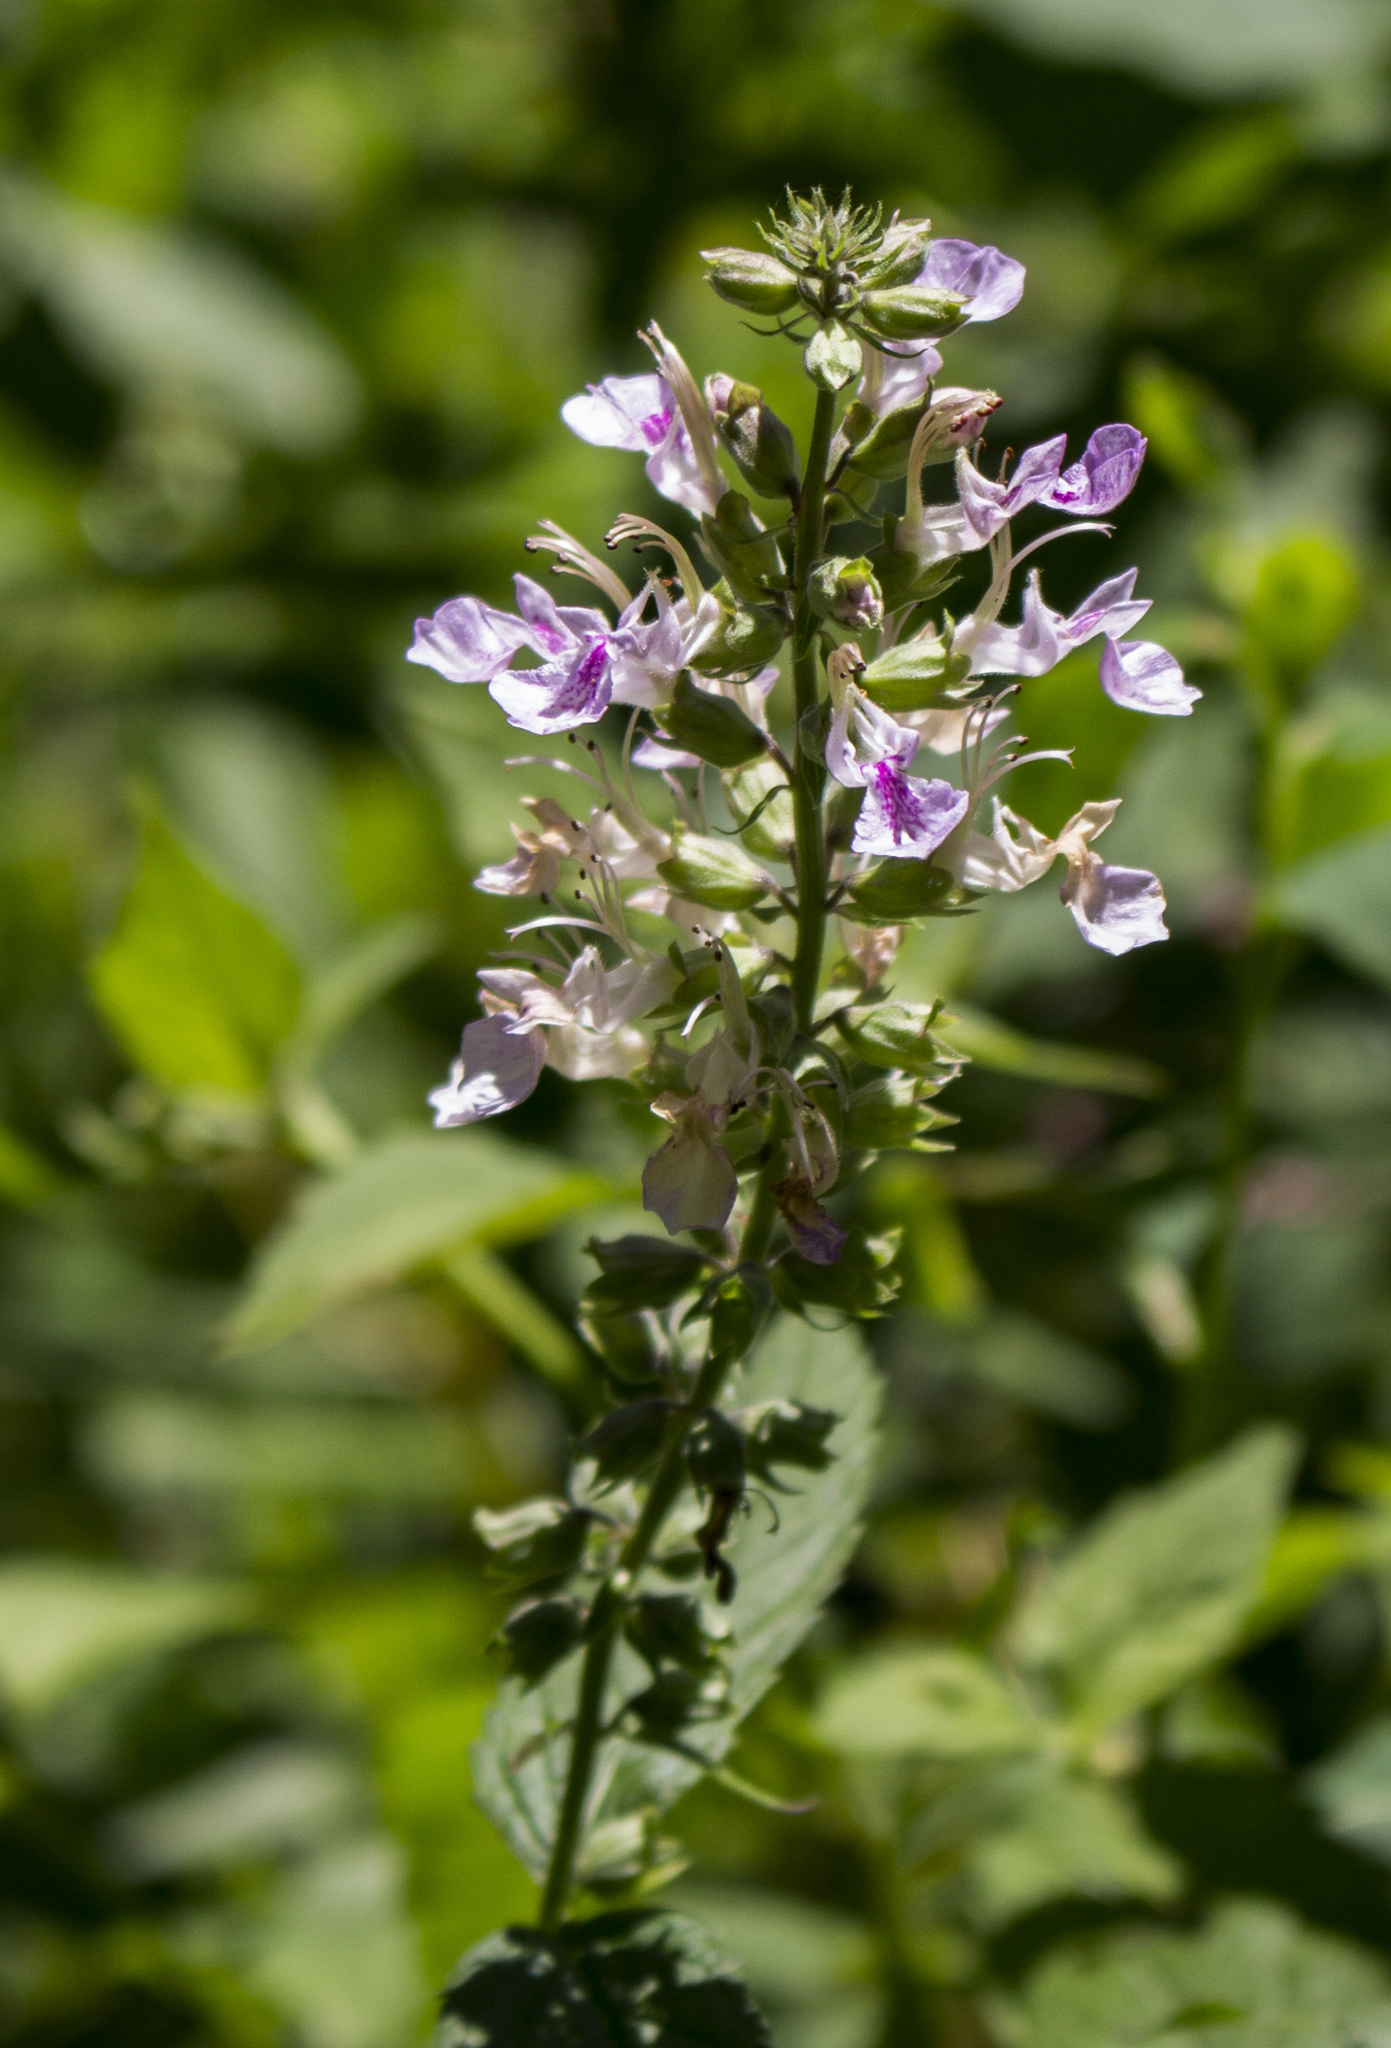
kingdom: Plantae
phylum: Tracheophyta
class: Magnoliopsida
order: Lamiales
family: Lamiaceae
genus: Teucrium
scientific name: Teucrium canadense
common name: American germander
